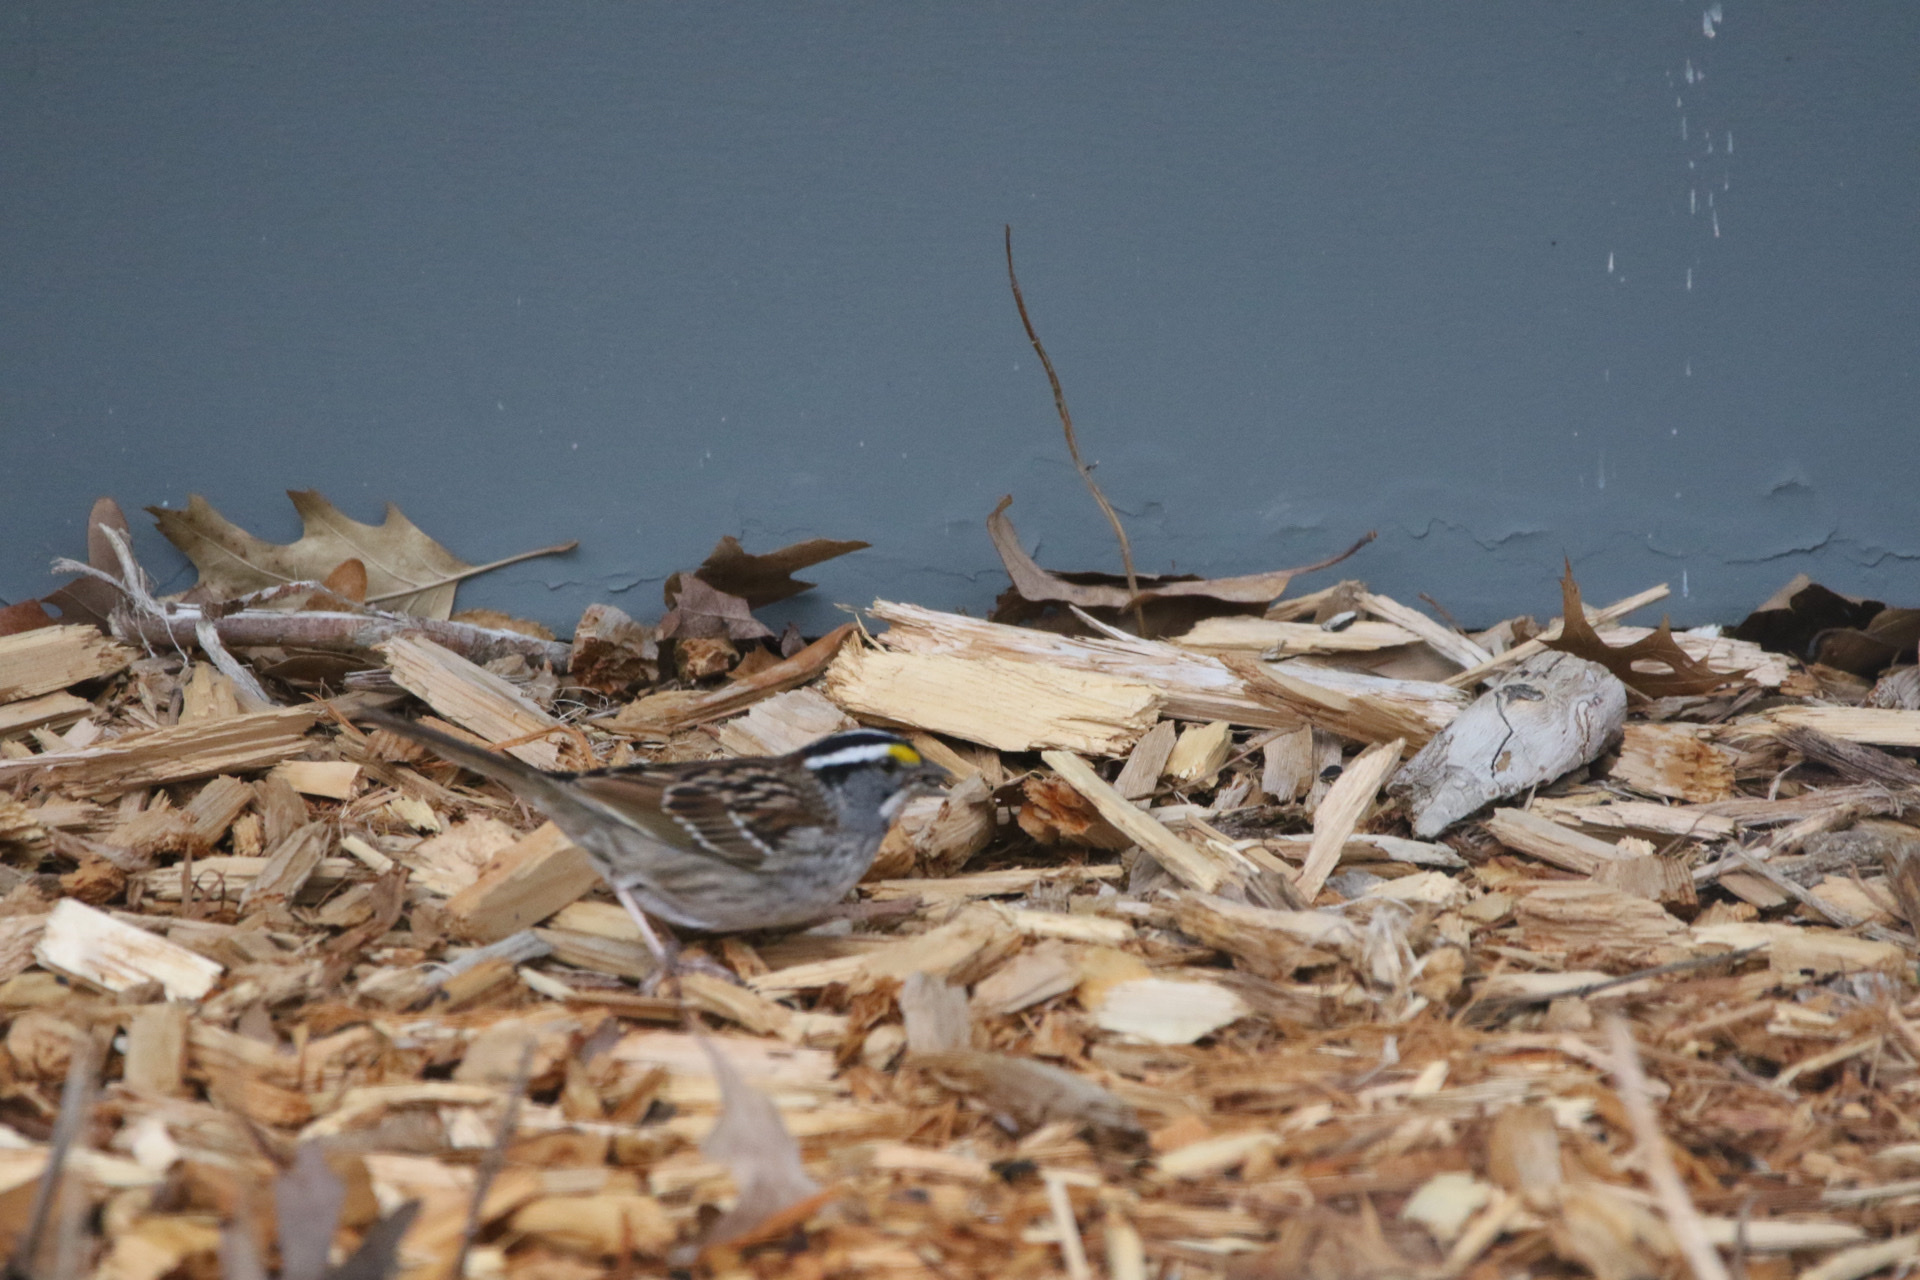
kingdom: Animalia
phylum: Chordata
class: Aves
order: Passeriformes
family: Passerellidae
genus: Zonotrichia
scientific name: Zonotrichia albicollis
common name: White-throated sparrow
